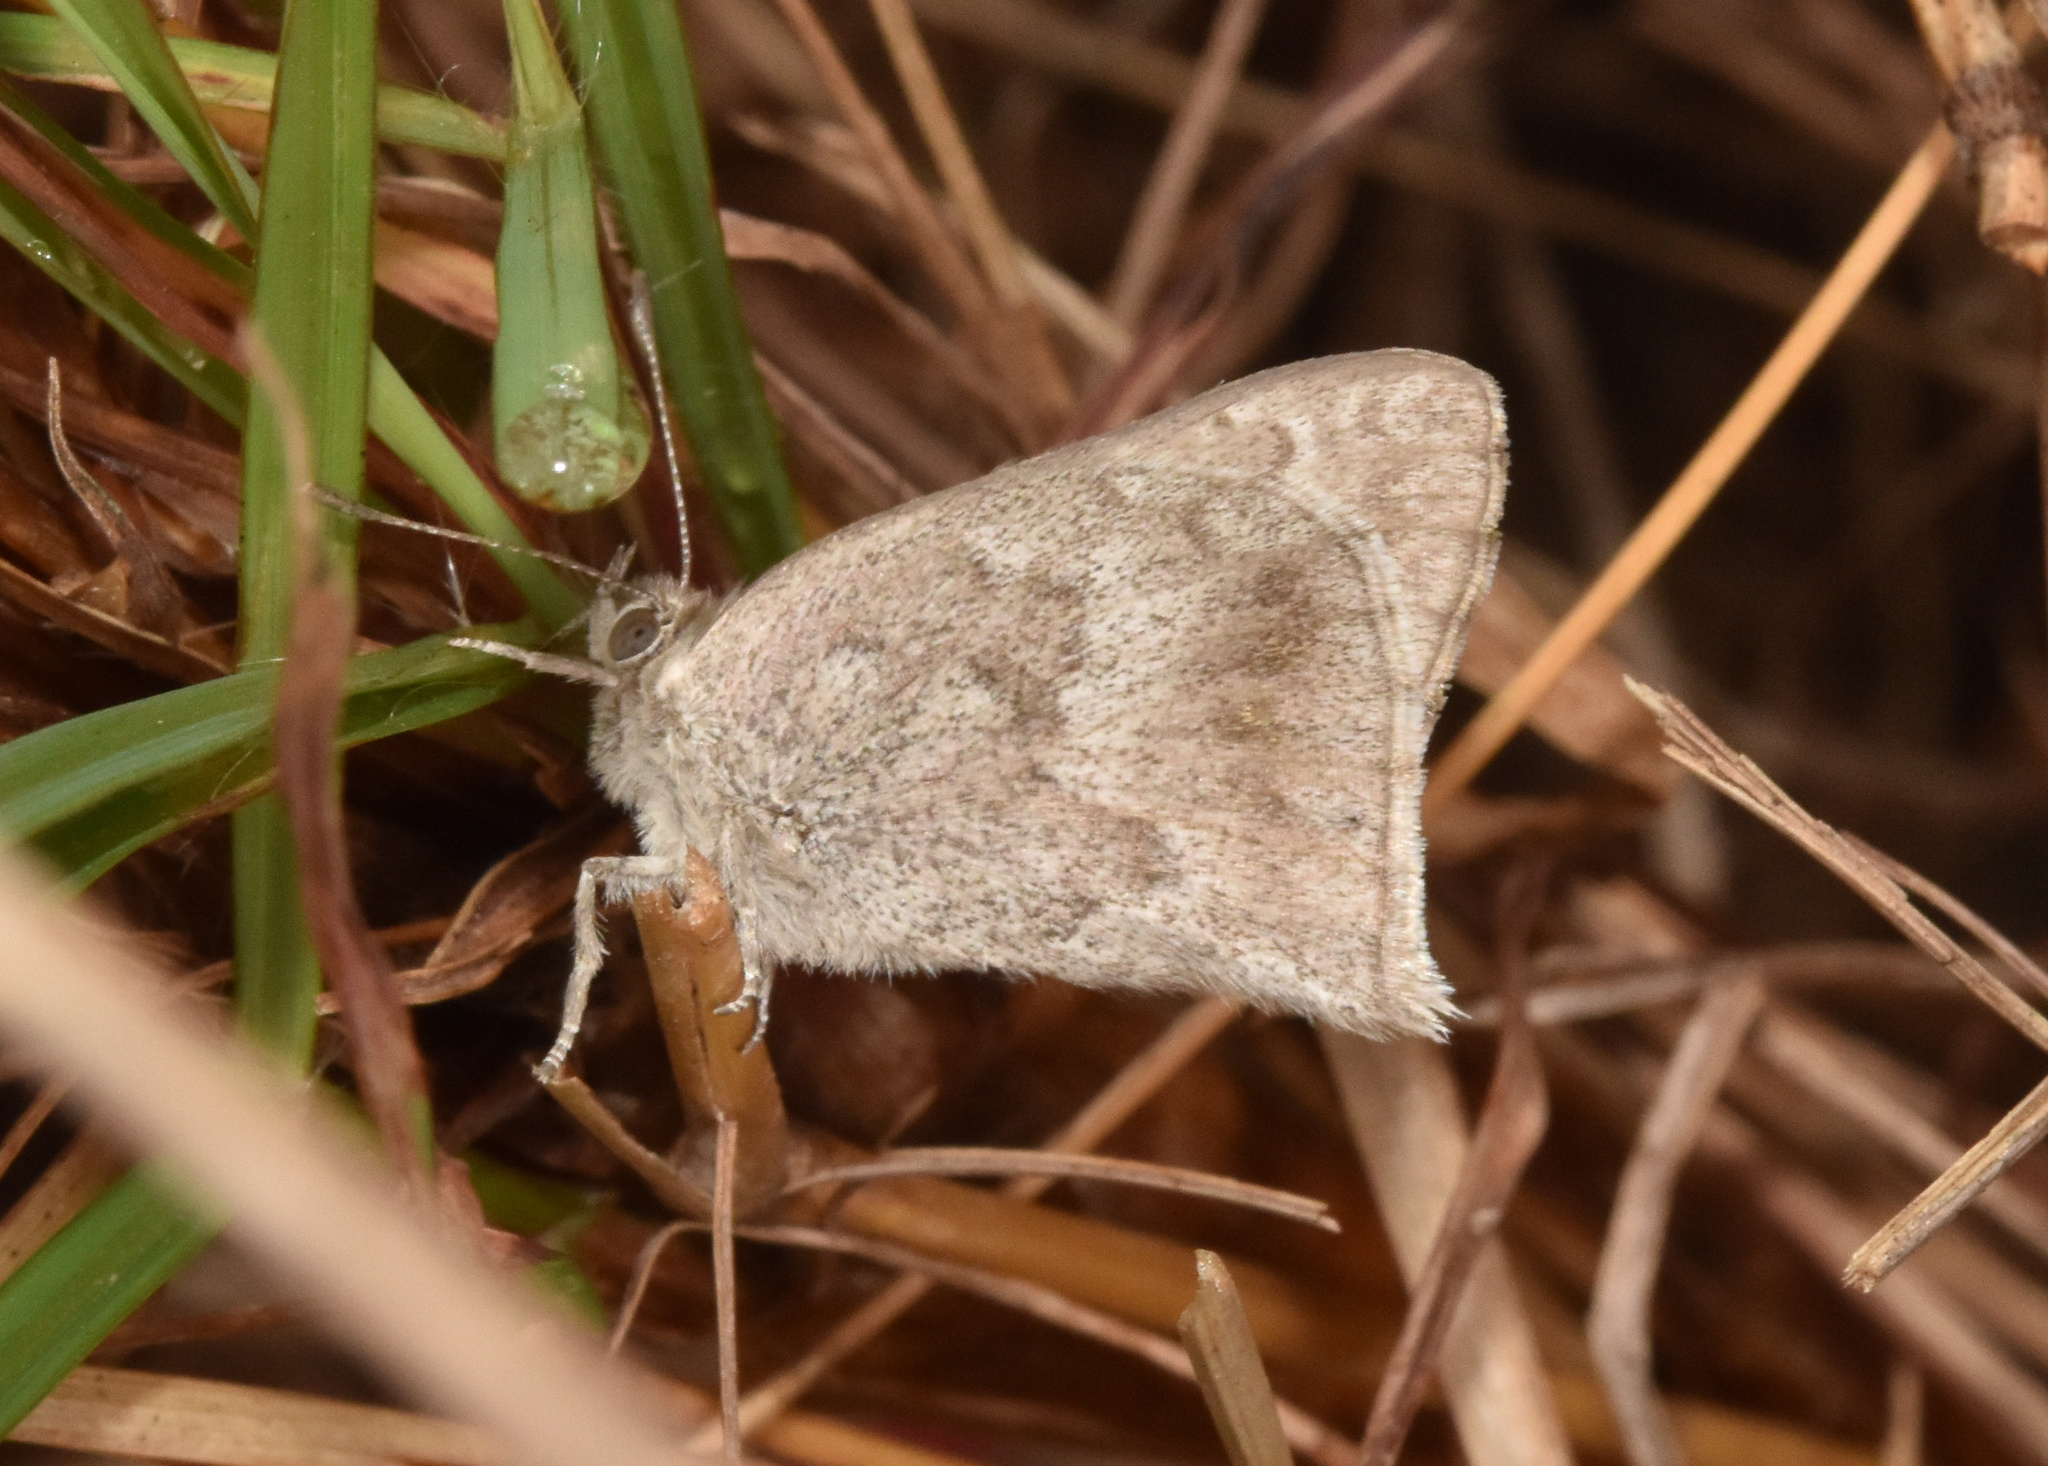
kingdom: Animalia
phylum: Arthropoda
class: Insecta
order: Lepidoptera
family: Lycaenidae
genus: Leptomyrina
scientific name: Leptomyrina gorgias
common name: Common black-eye
